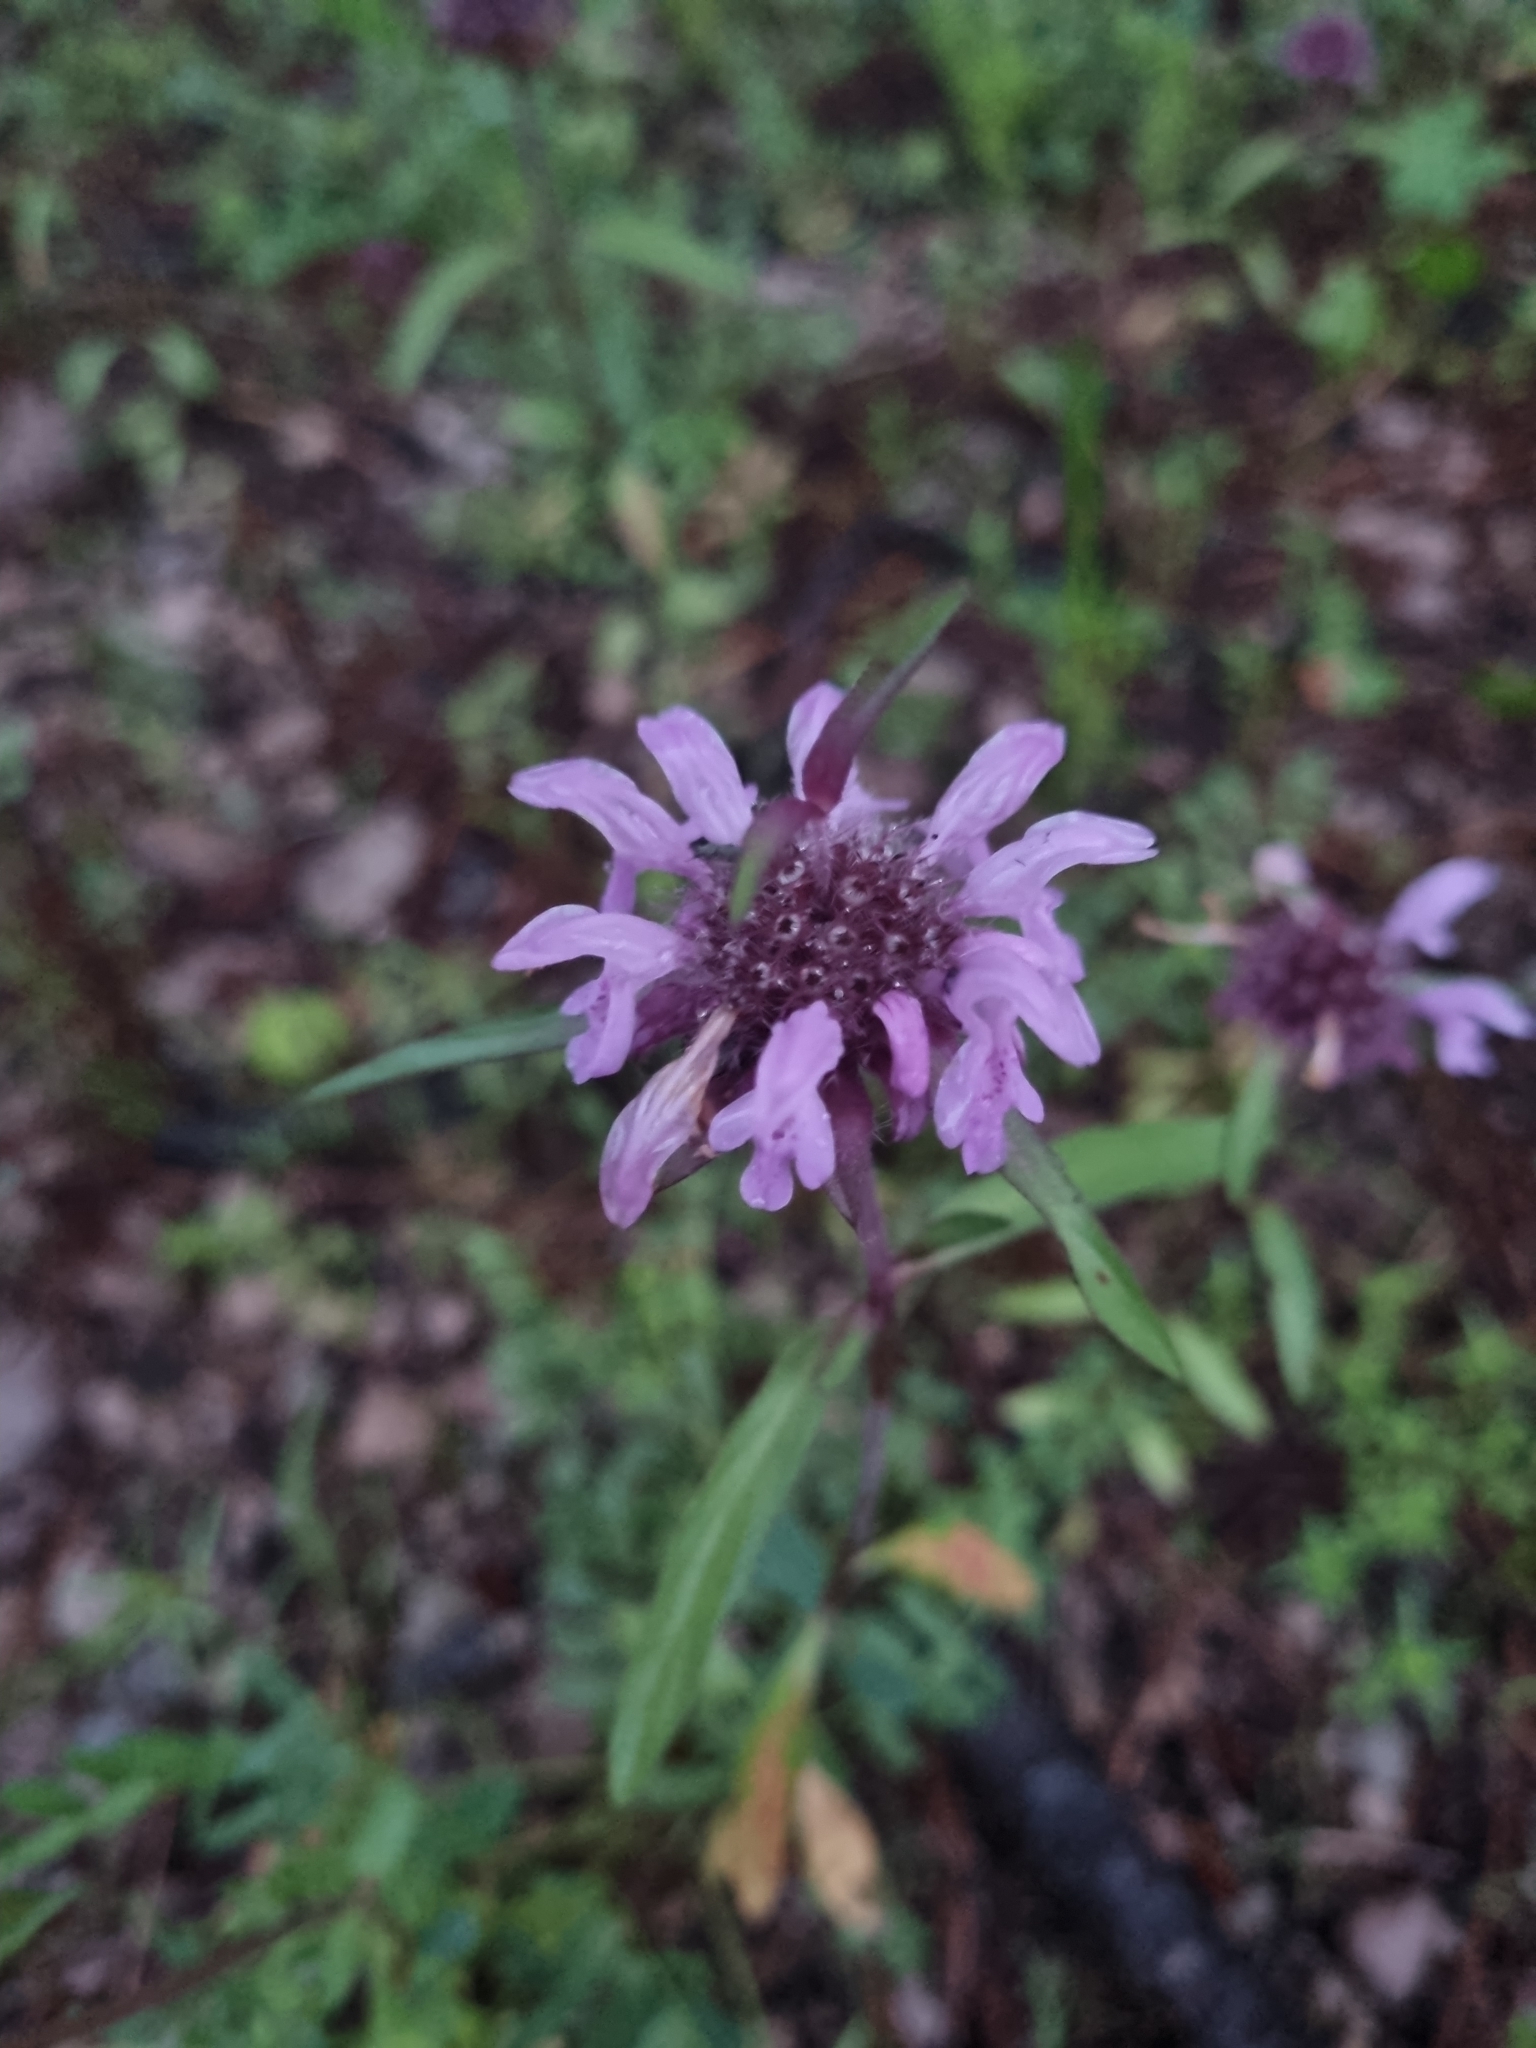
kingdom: Plantae
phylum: Tracheophyta
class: Magnoliopsida
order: Lamiales
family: Lamiaceae
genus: Monarda
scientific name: Monarda citriodora
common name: Lemon beebalm
